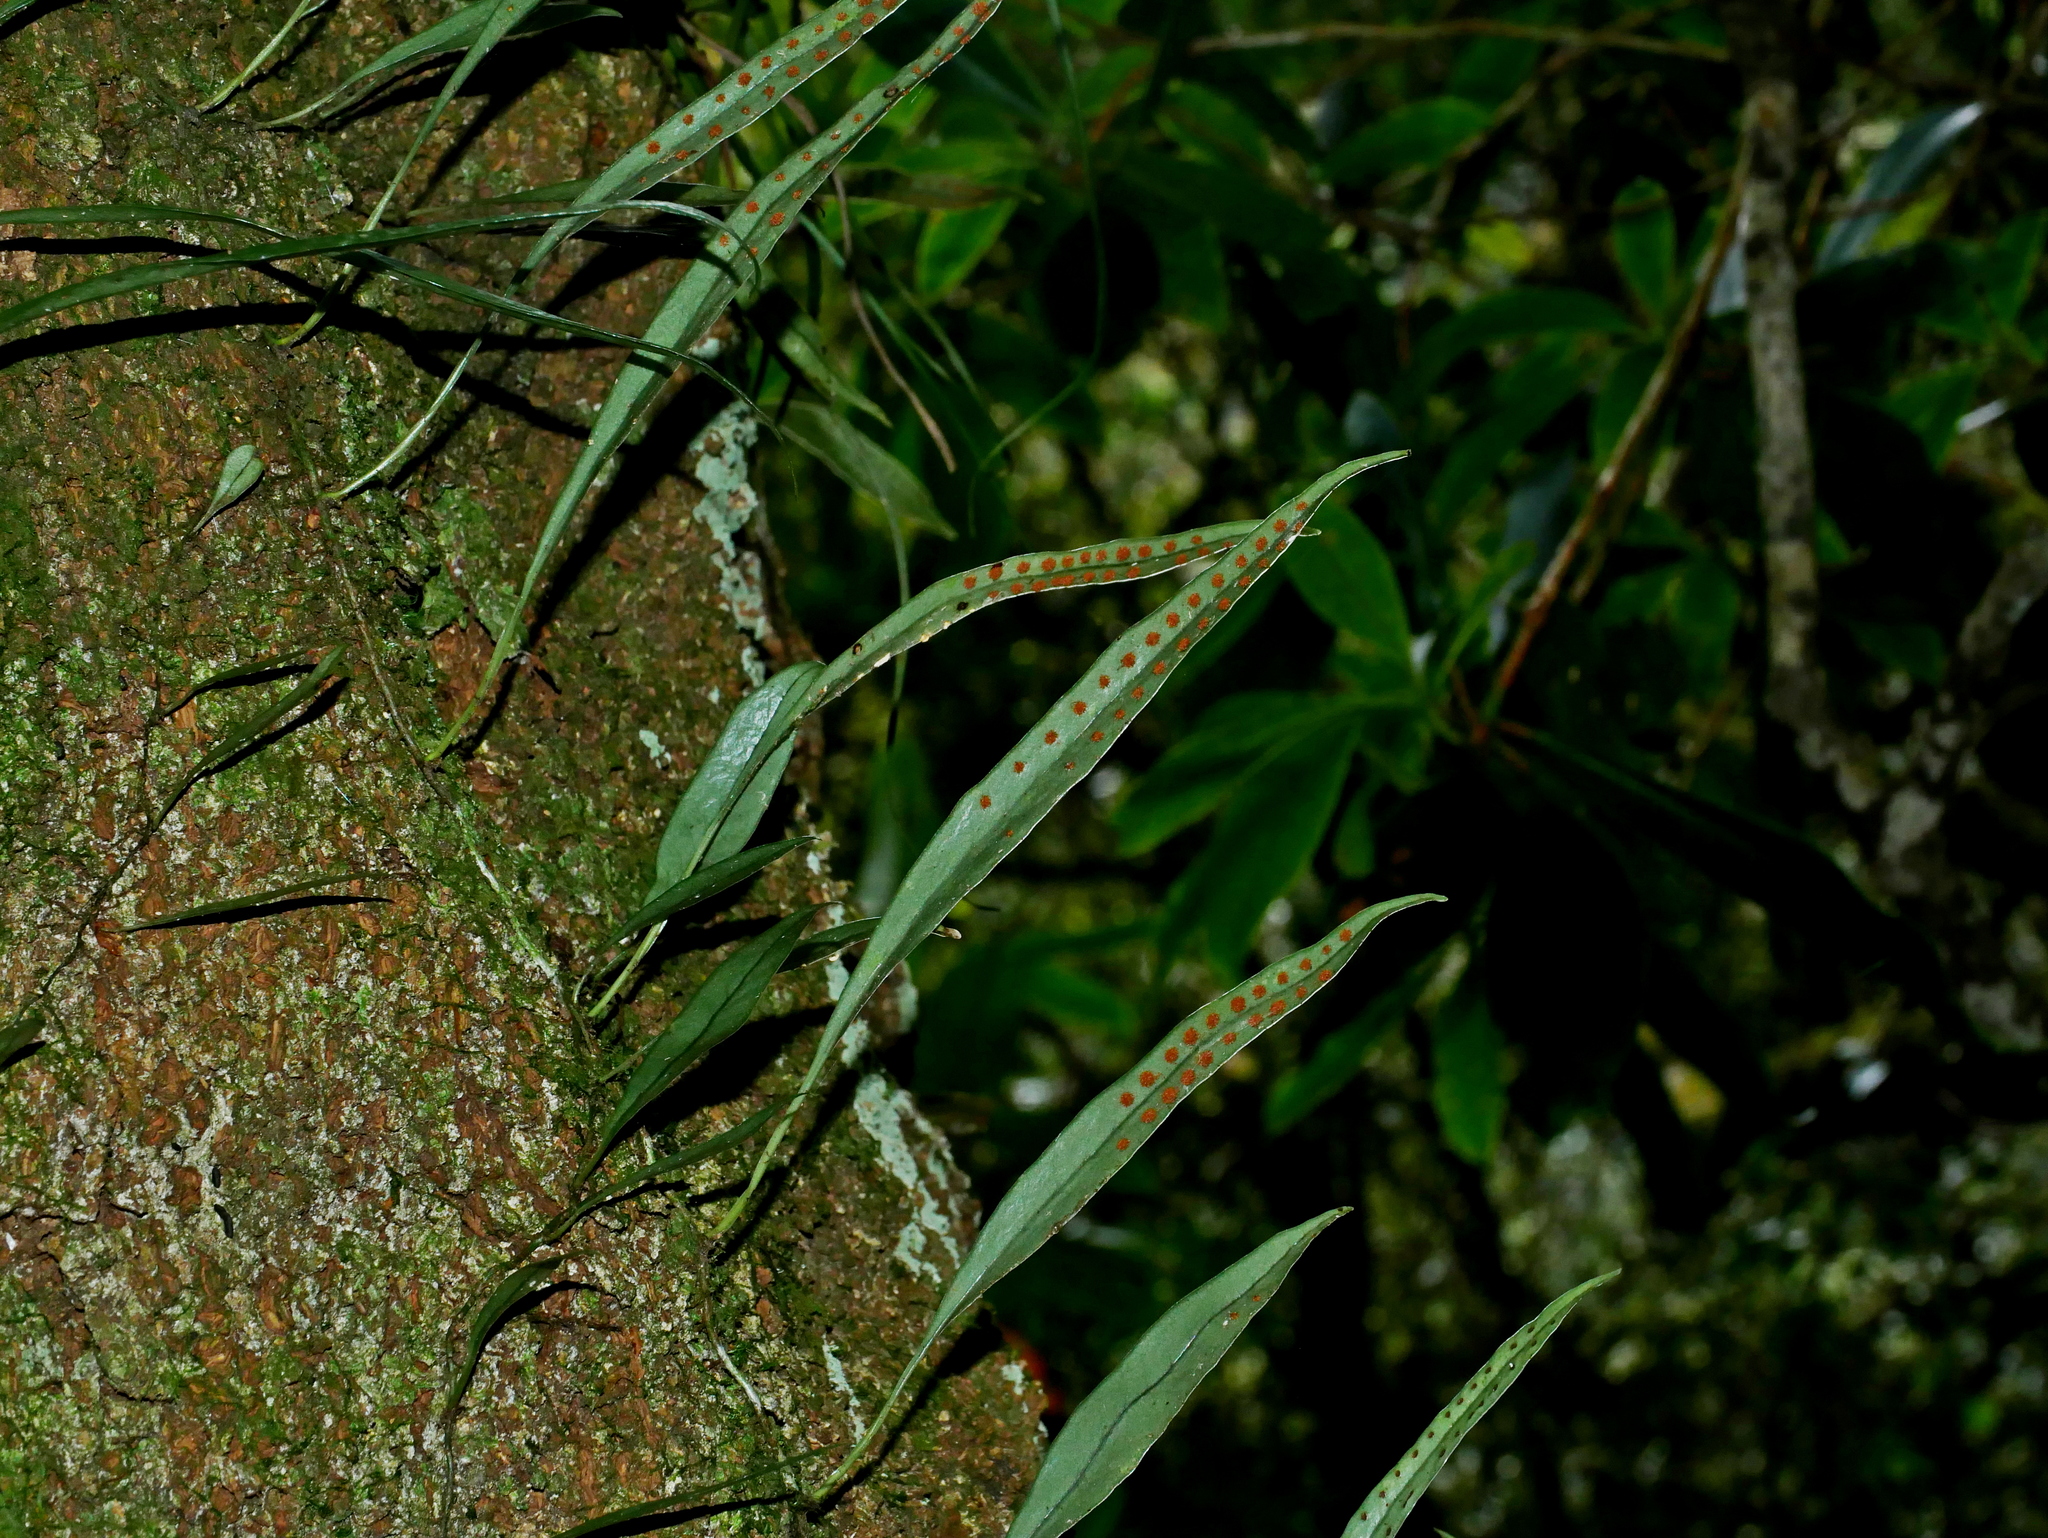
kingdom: Plantae
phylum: Tracheophyta
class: Polypodiopsida
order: Polypodiales
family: Polypodiaceae
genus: Lepisorus
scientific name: Lepisorus rostratus
